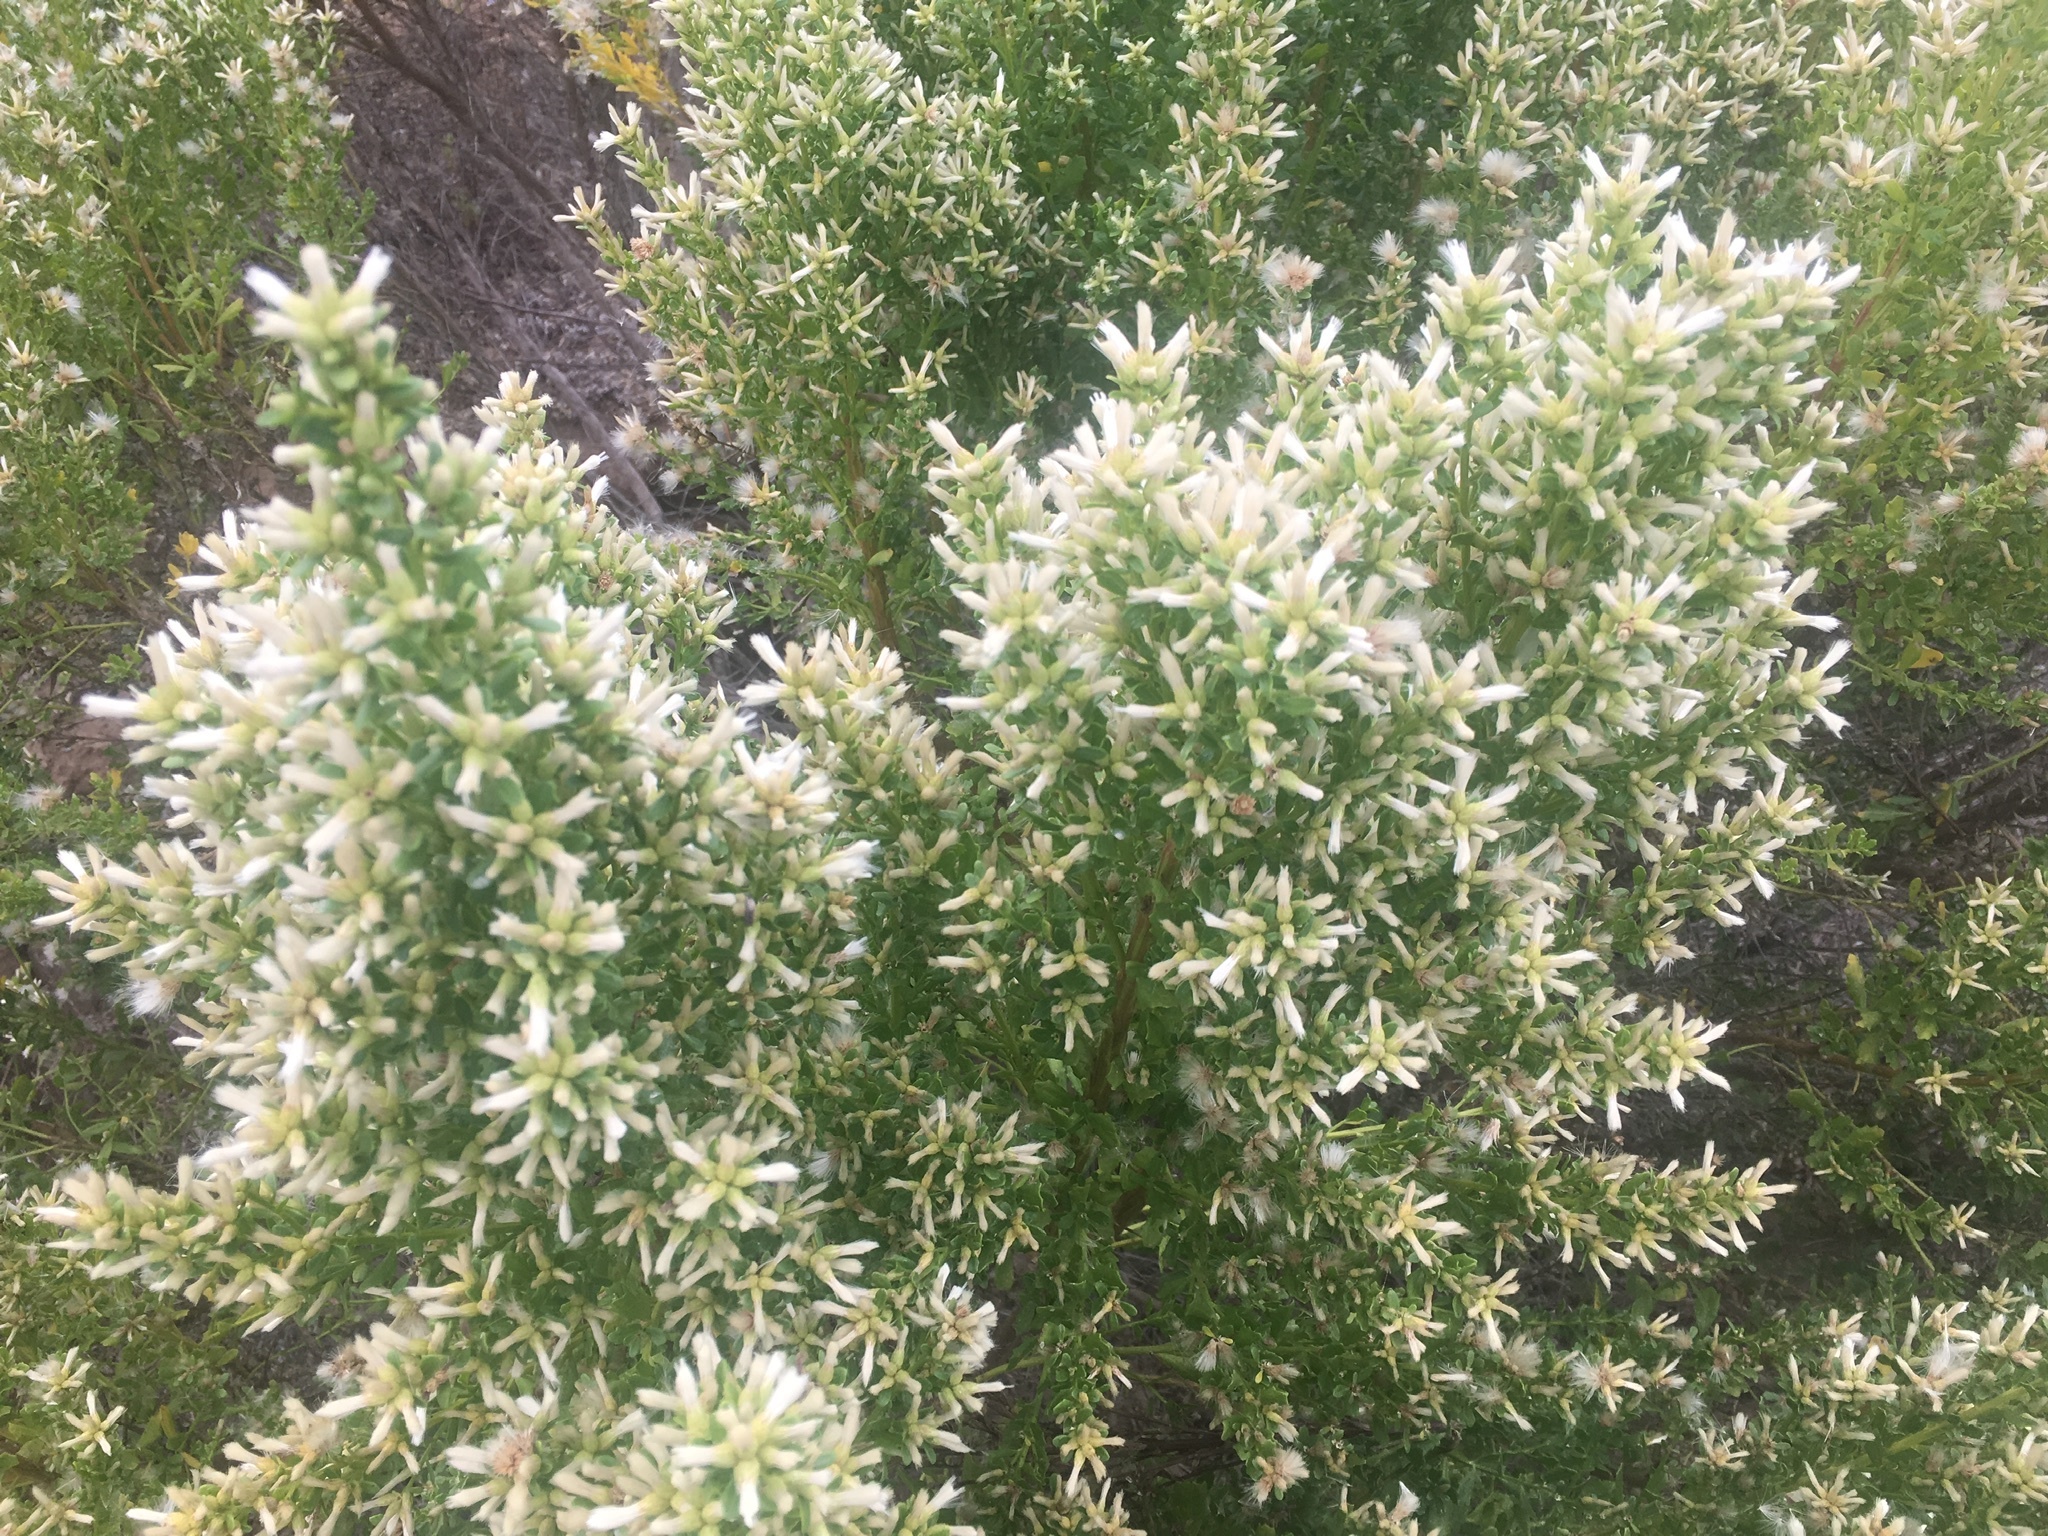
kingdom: Plantae
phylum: Tracheophyta
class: Magnoliopsida
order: Asterales
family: Asteraceae
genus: Baccharis
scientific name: Baccharis pilularis
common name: Coyotebrush
